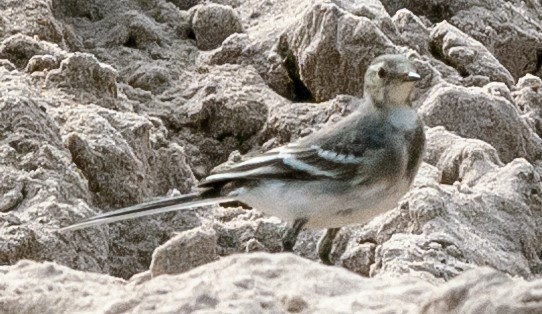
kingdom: Animalia
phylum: Chordata
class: Aves
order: Passeriformes
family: Motacillidae
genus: Motacilla
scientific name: Motacilla alba
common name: White wagtail
